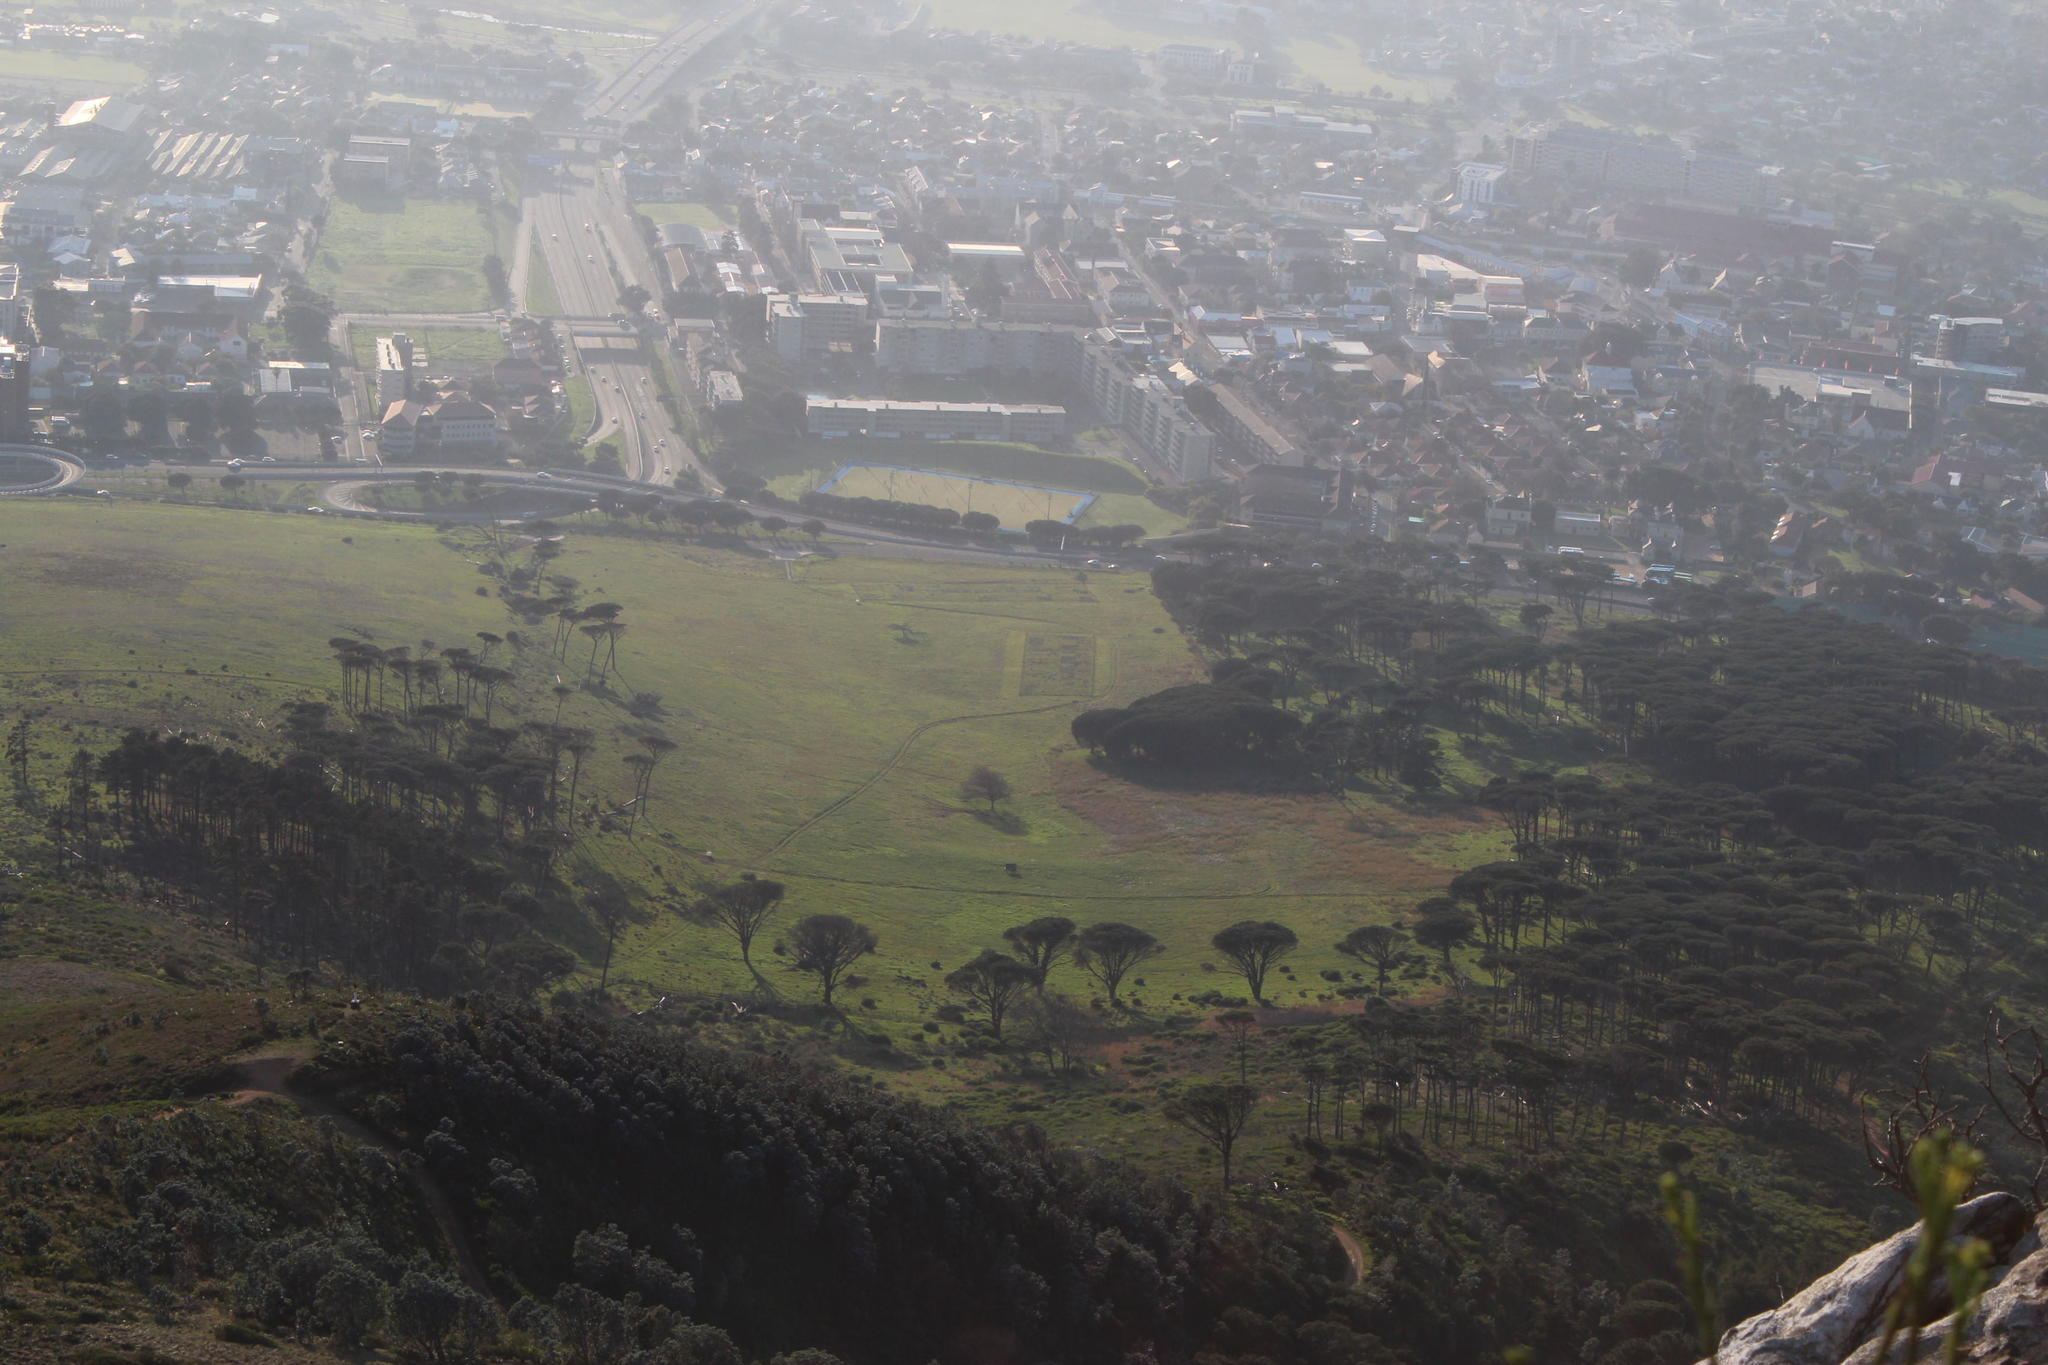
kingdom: Plantae
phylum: Tracheophyta
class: Pinopsida
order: Pinales
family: Pinaceae
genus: Pinus
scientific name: Pinus pinea
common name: Italian stone pine
